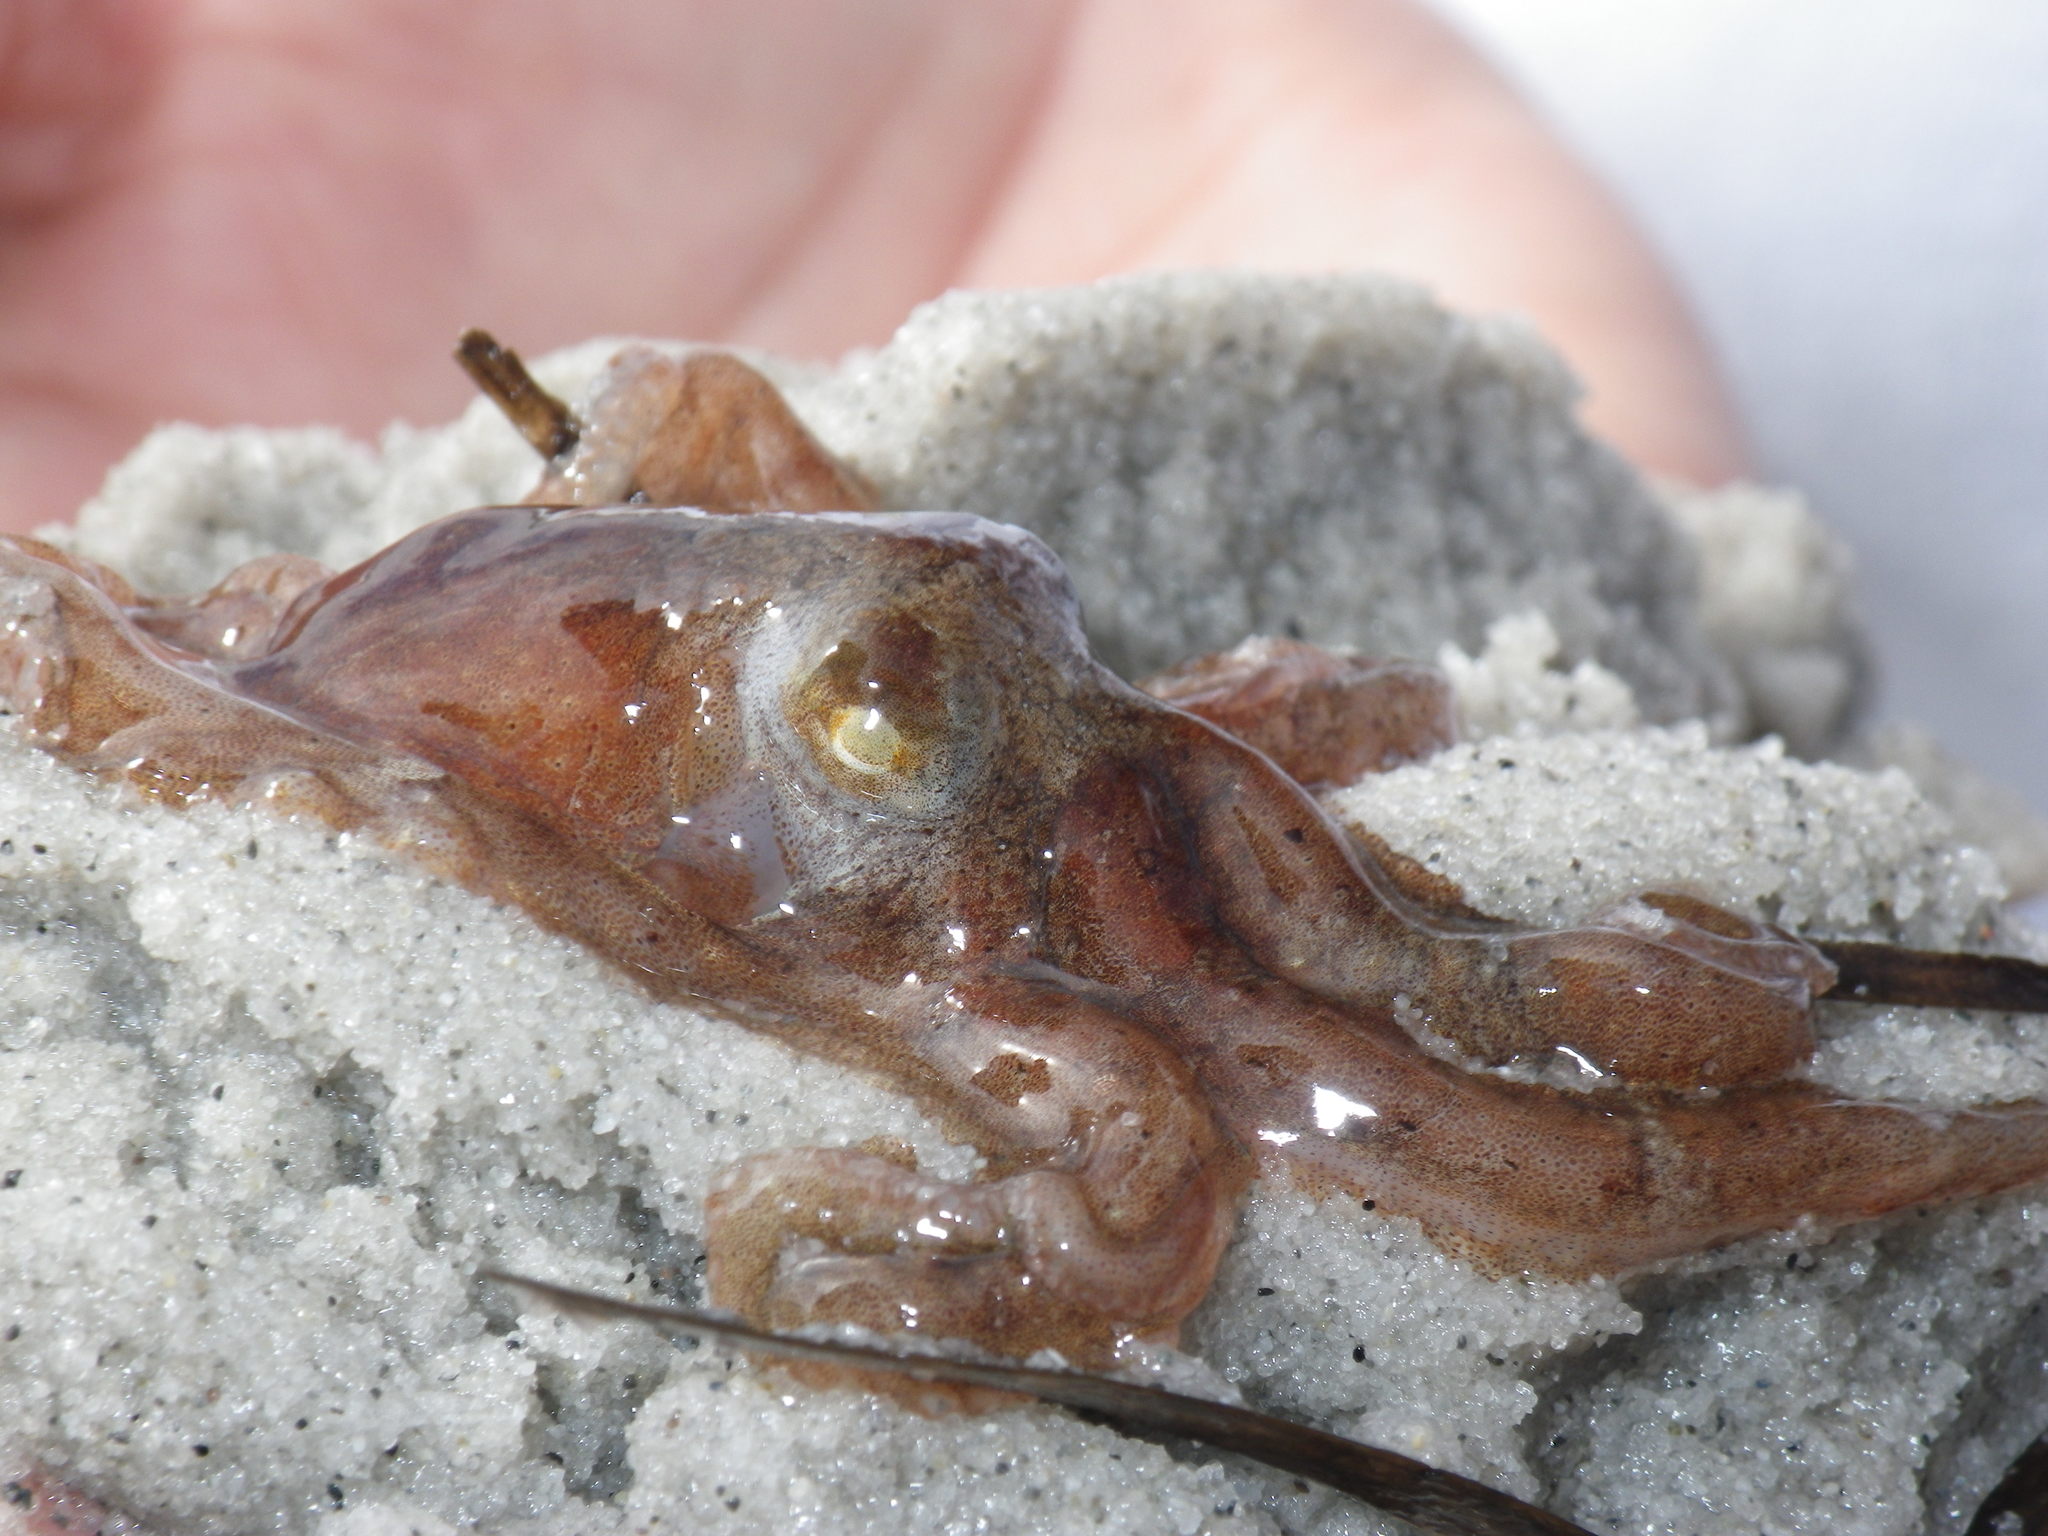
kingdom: Animalia
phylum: Mollusca
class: Cephalopoda
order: Octopoda
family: Octopodidae
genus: Octopus
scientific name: Octopus rubescens
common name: East pacific red octopus
